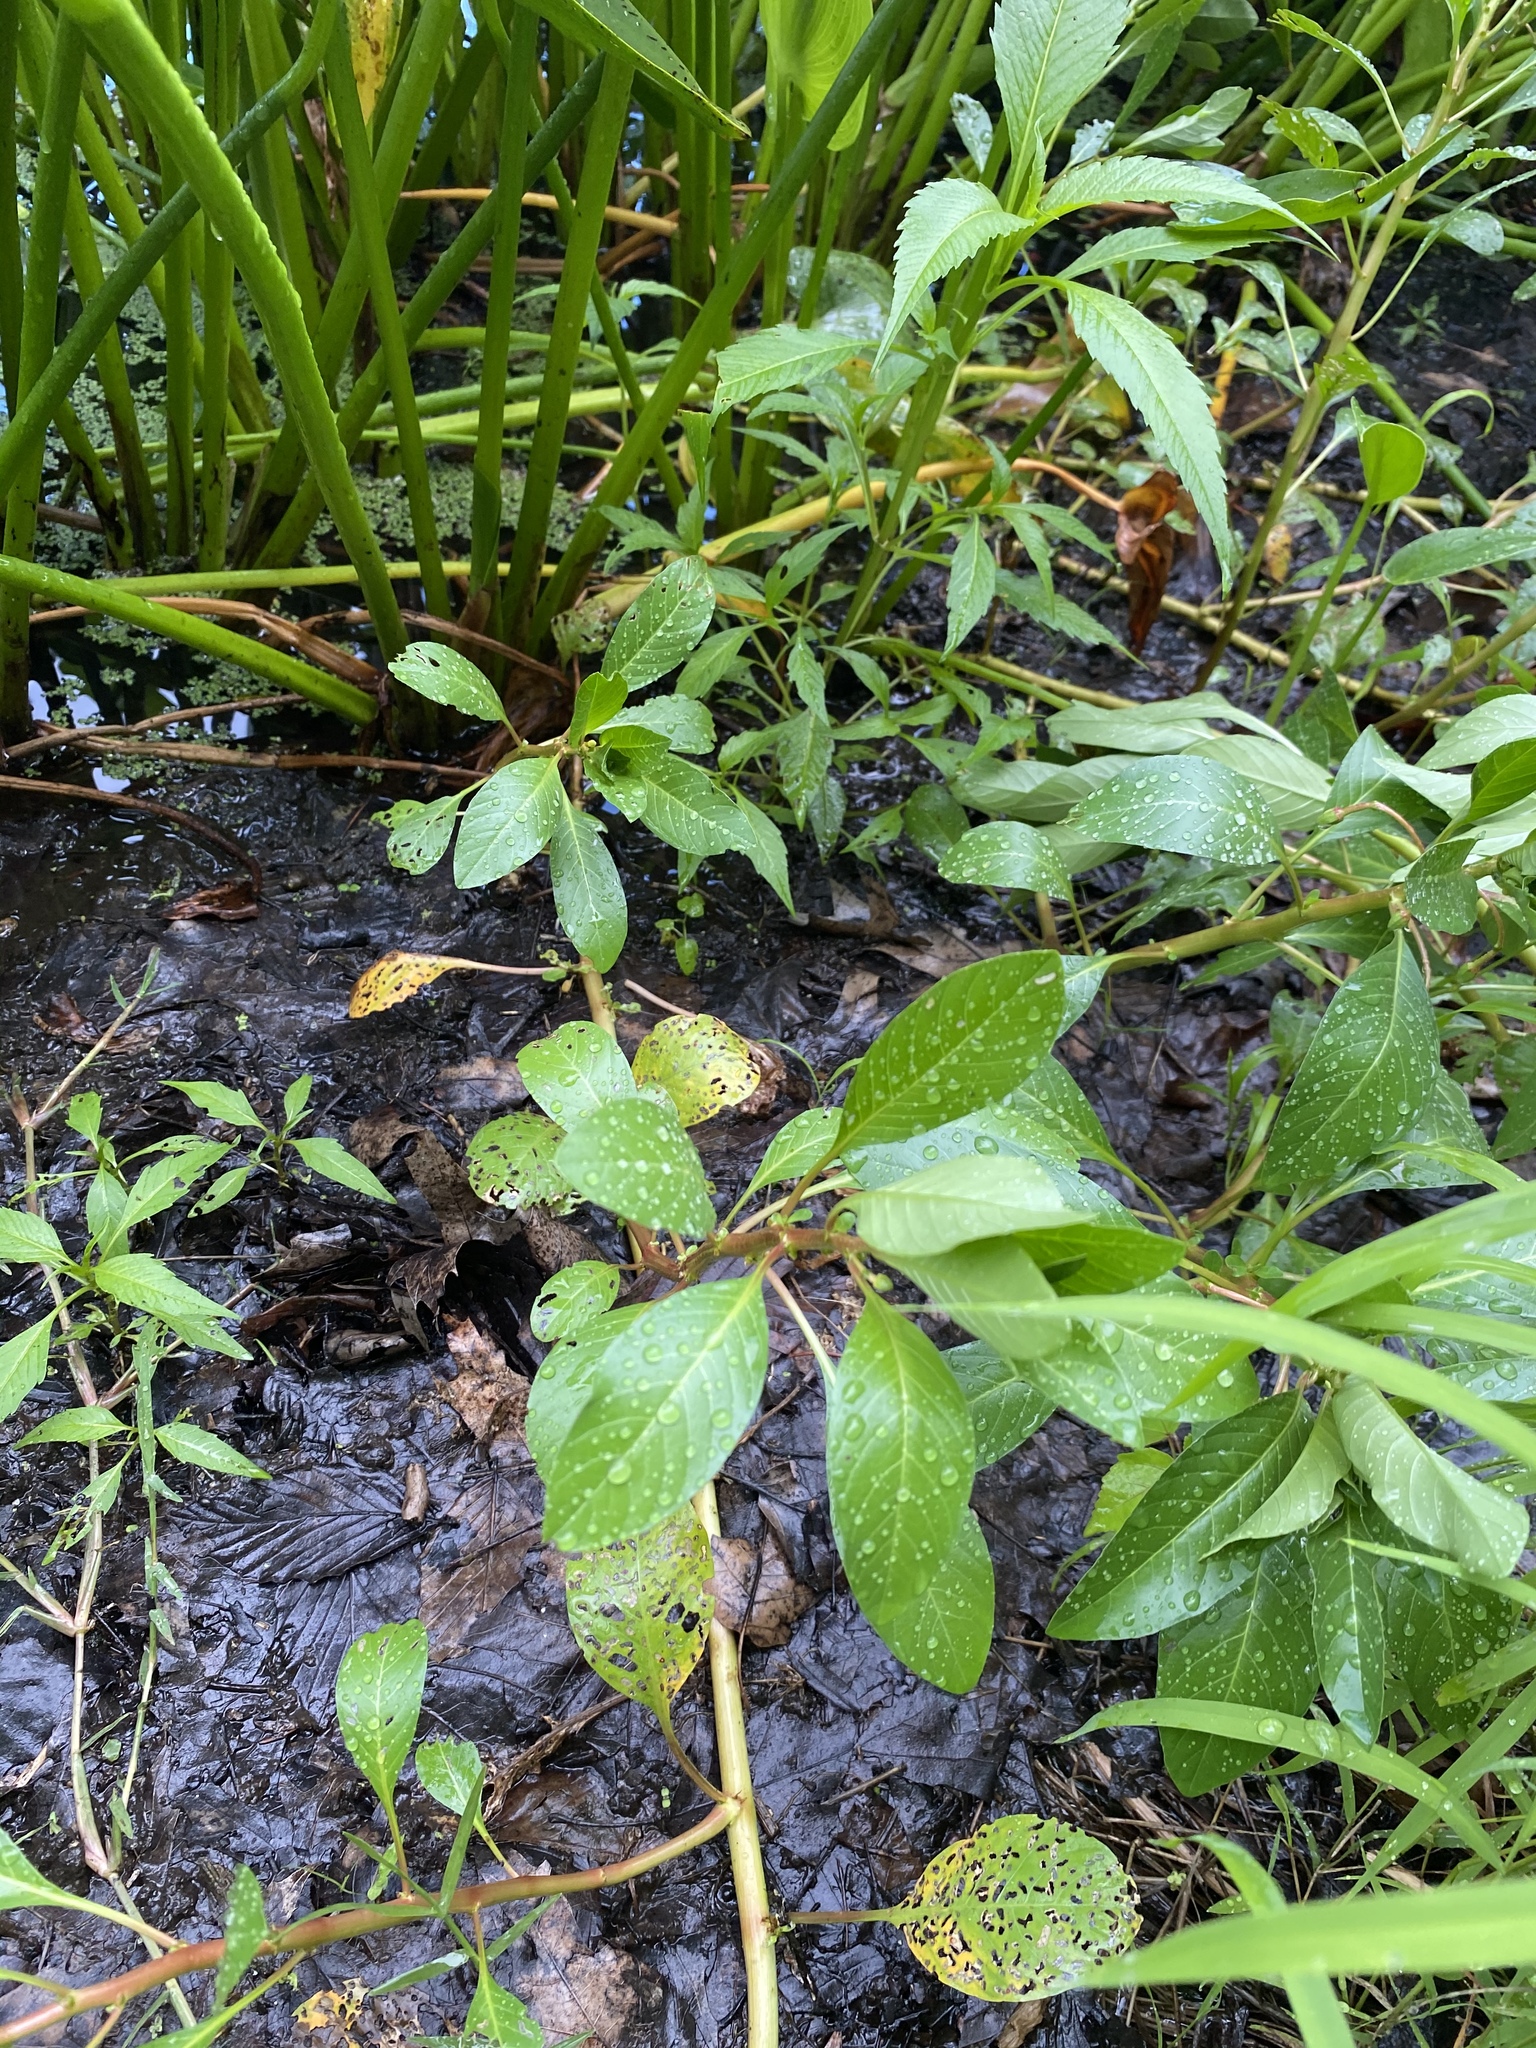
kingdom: Plantae
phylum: Tracheophyta
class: Magnoliopsida
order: Myrtales
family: Onagraceae
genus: Ludwigia
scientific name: Ludwigia peploides
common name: Floating primrose-willow
